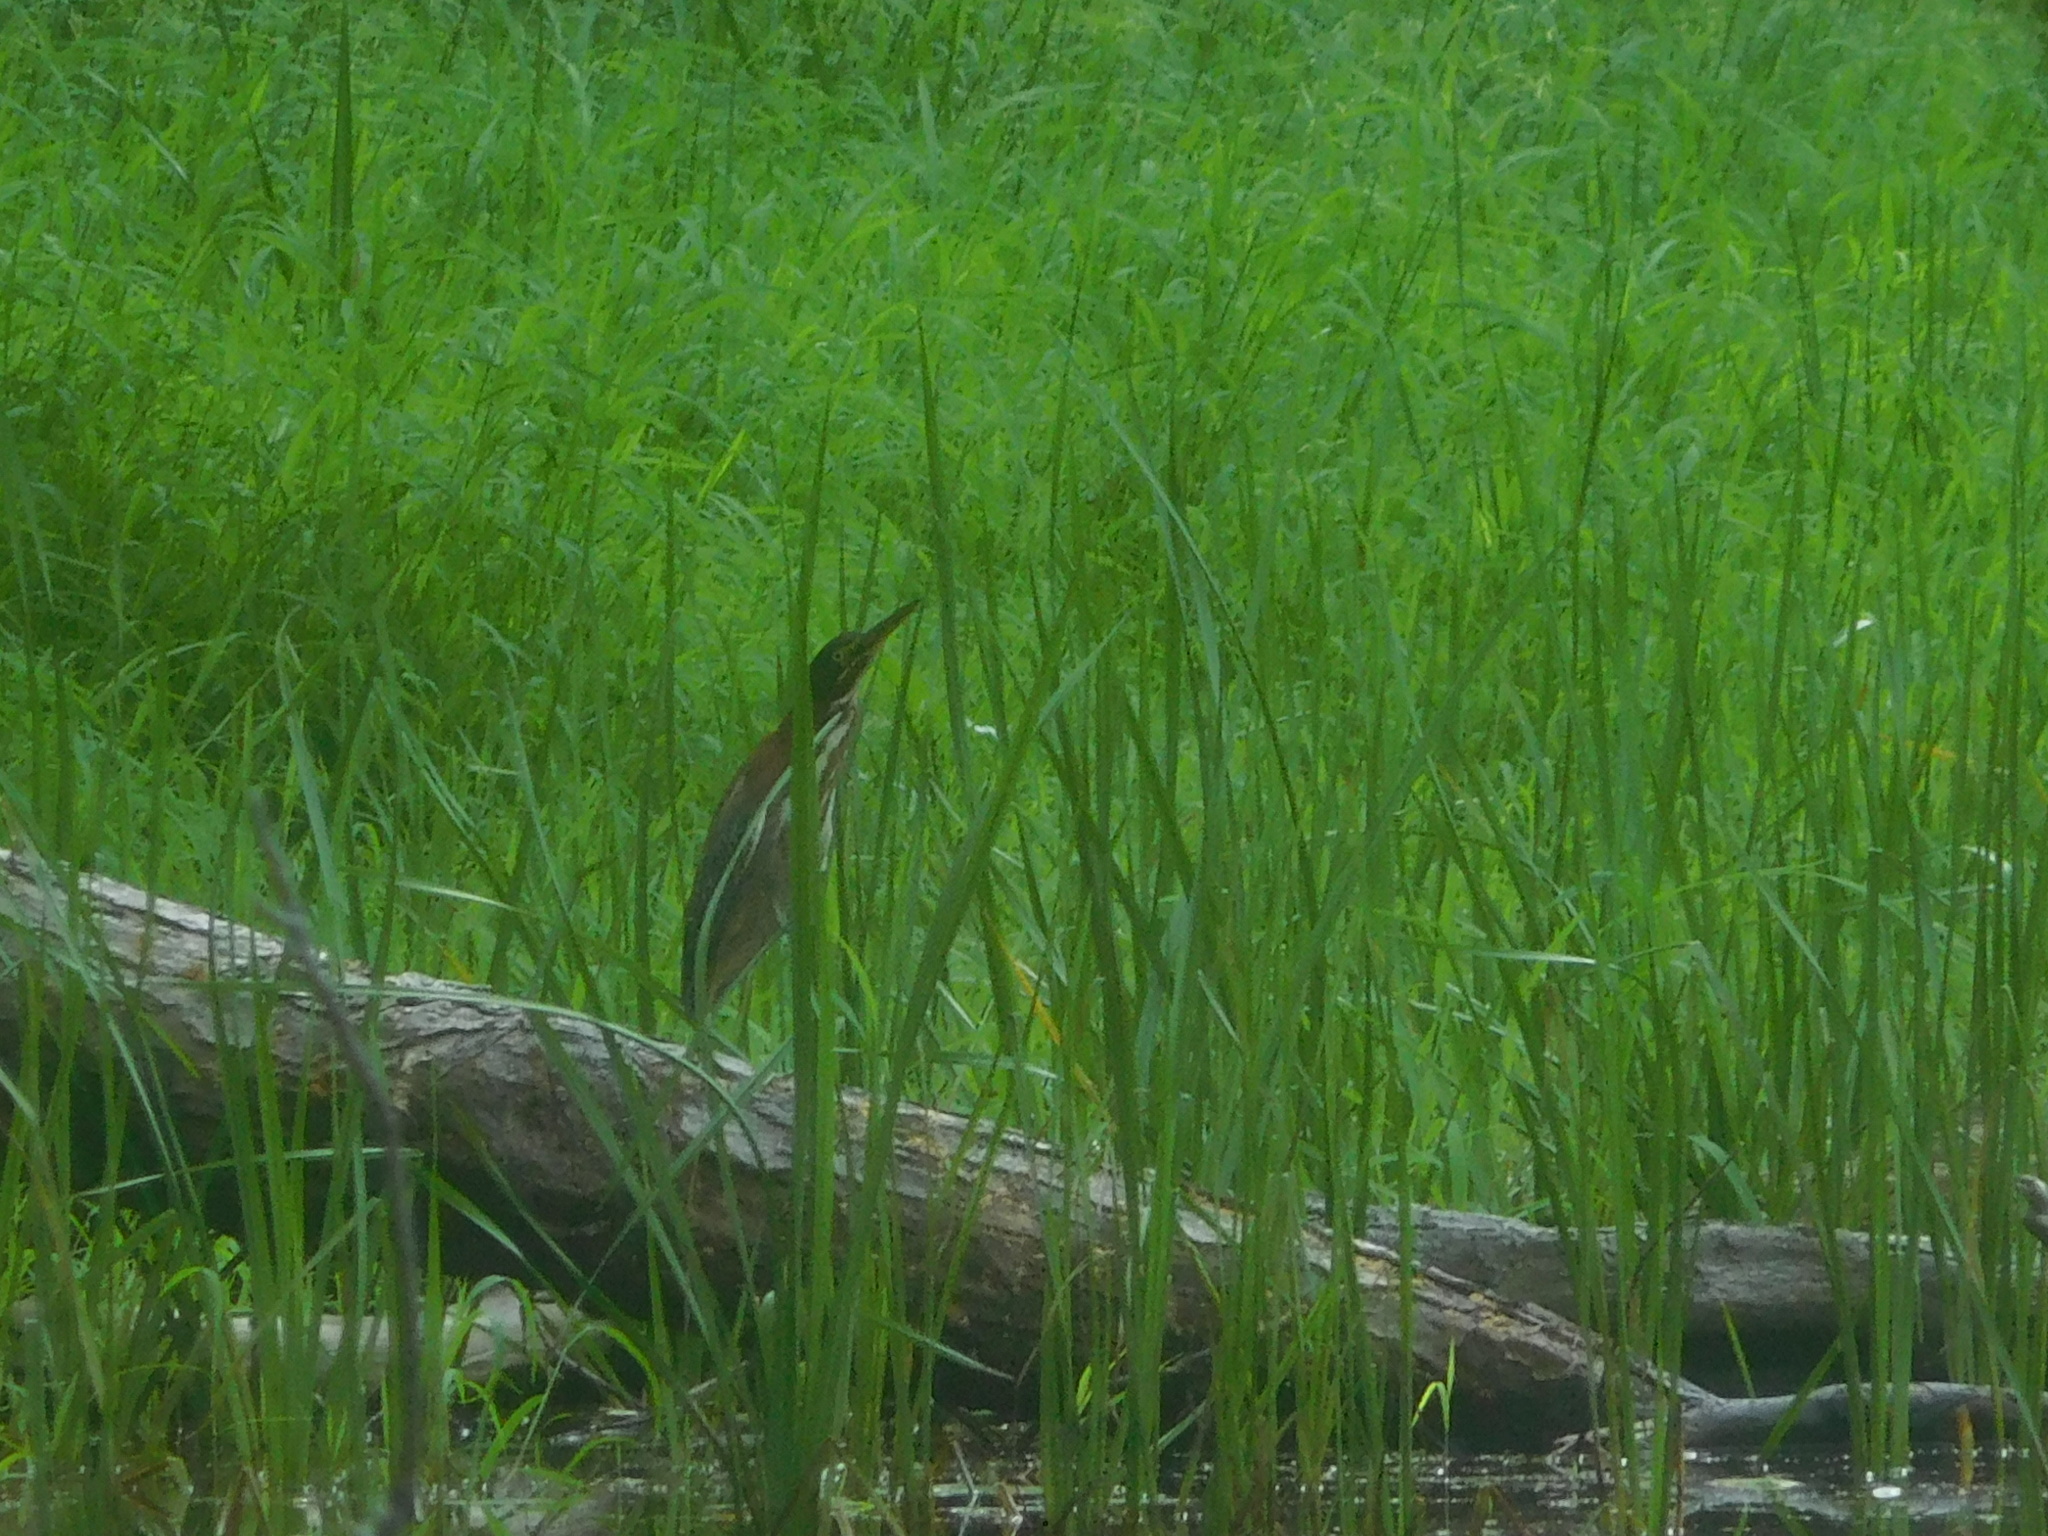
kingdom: Animalia
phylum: Chordata
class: Aves
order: Pelecaniformes
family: Ardeidae
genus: Butorides
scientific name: Butorides virescens
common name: Green heron
